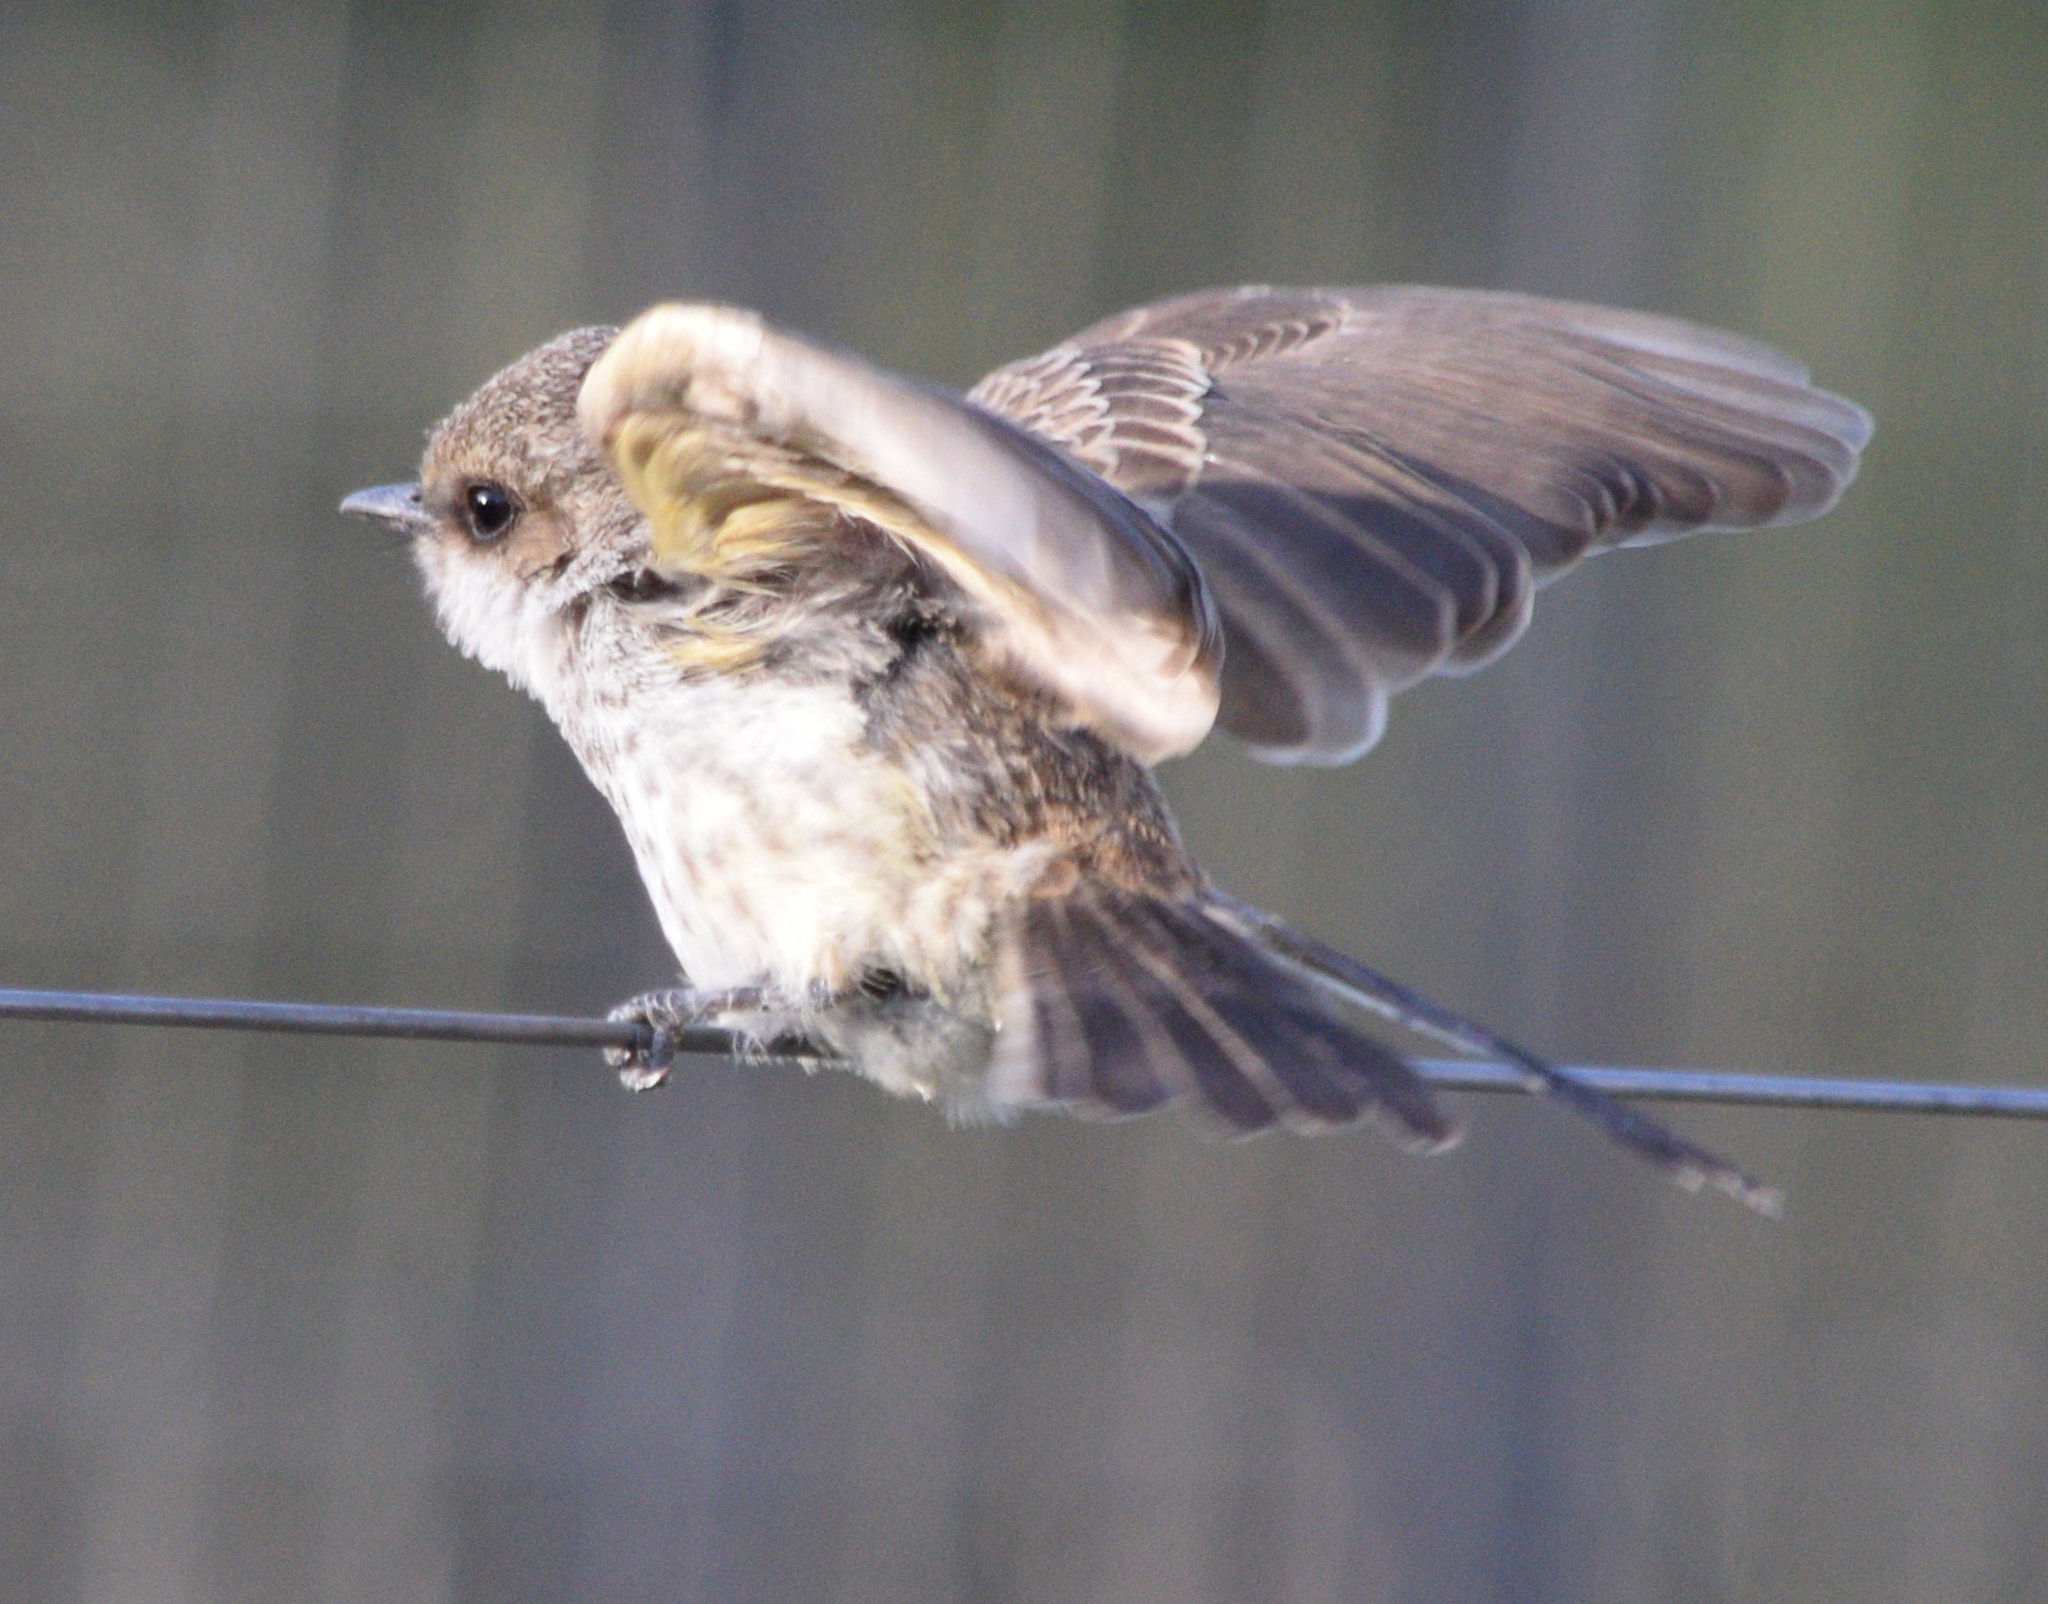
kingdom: Animalia
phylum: Chordata
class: Aves
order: Passeriformes
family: Tyrannidae
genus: Pyrocephalus
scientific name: Pyrocephalus rubinus
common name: Vermilion flycatcher
